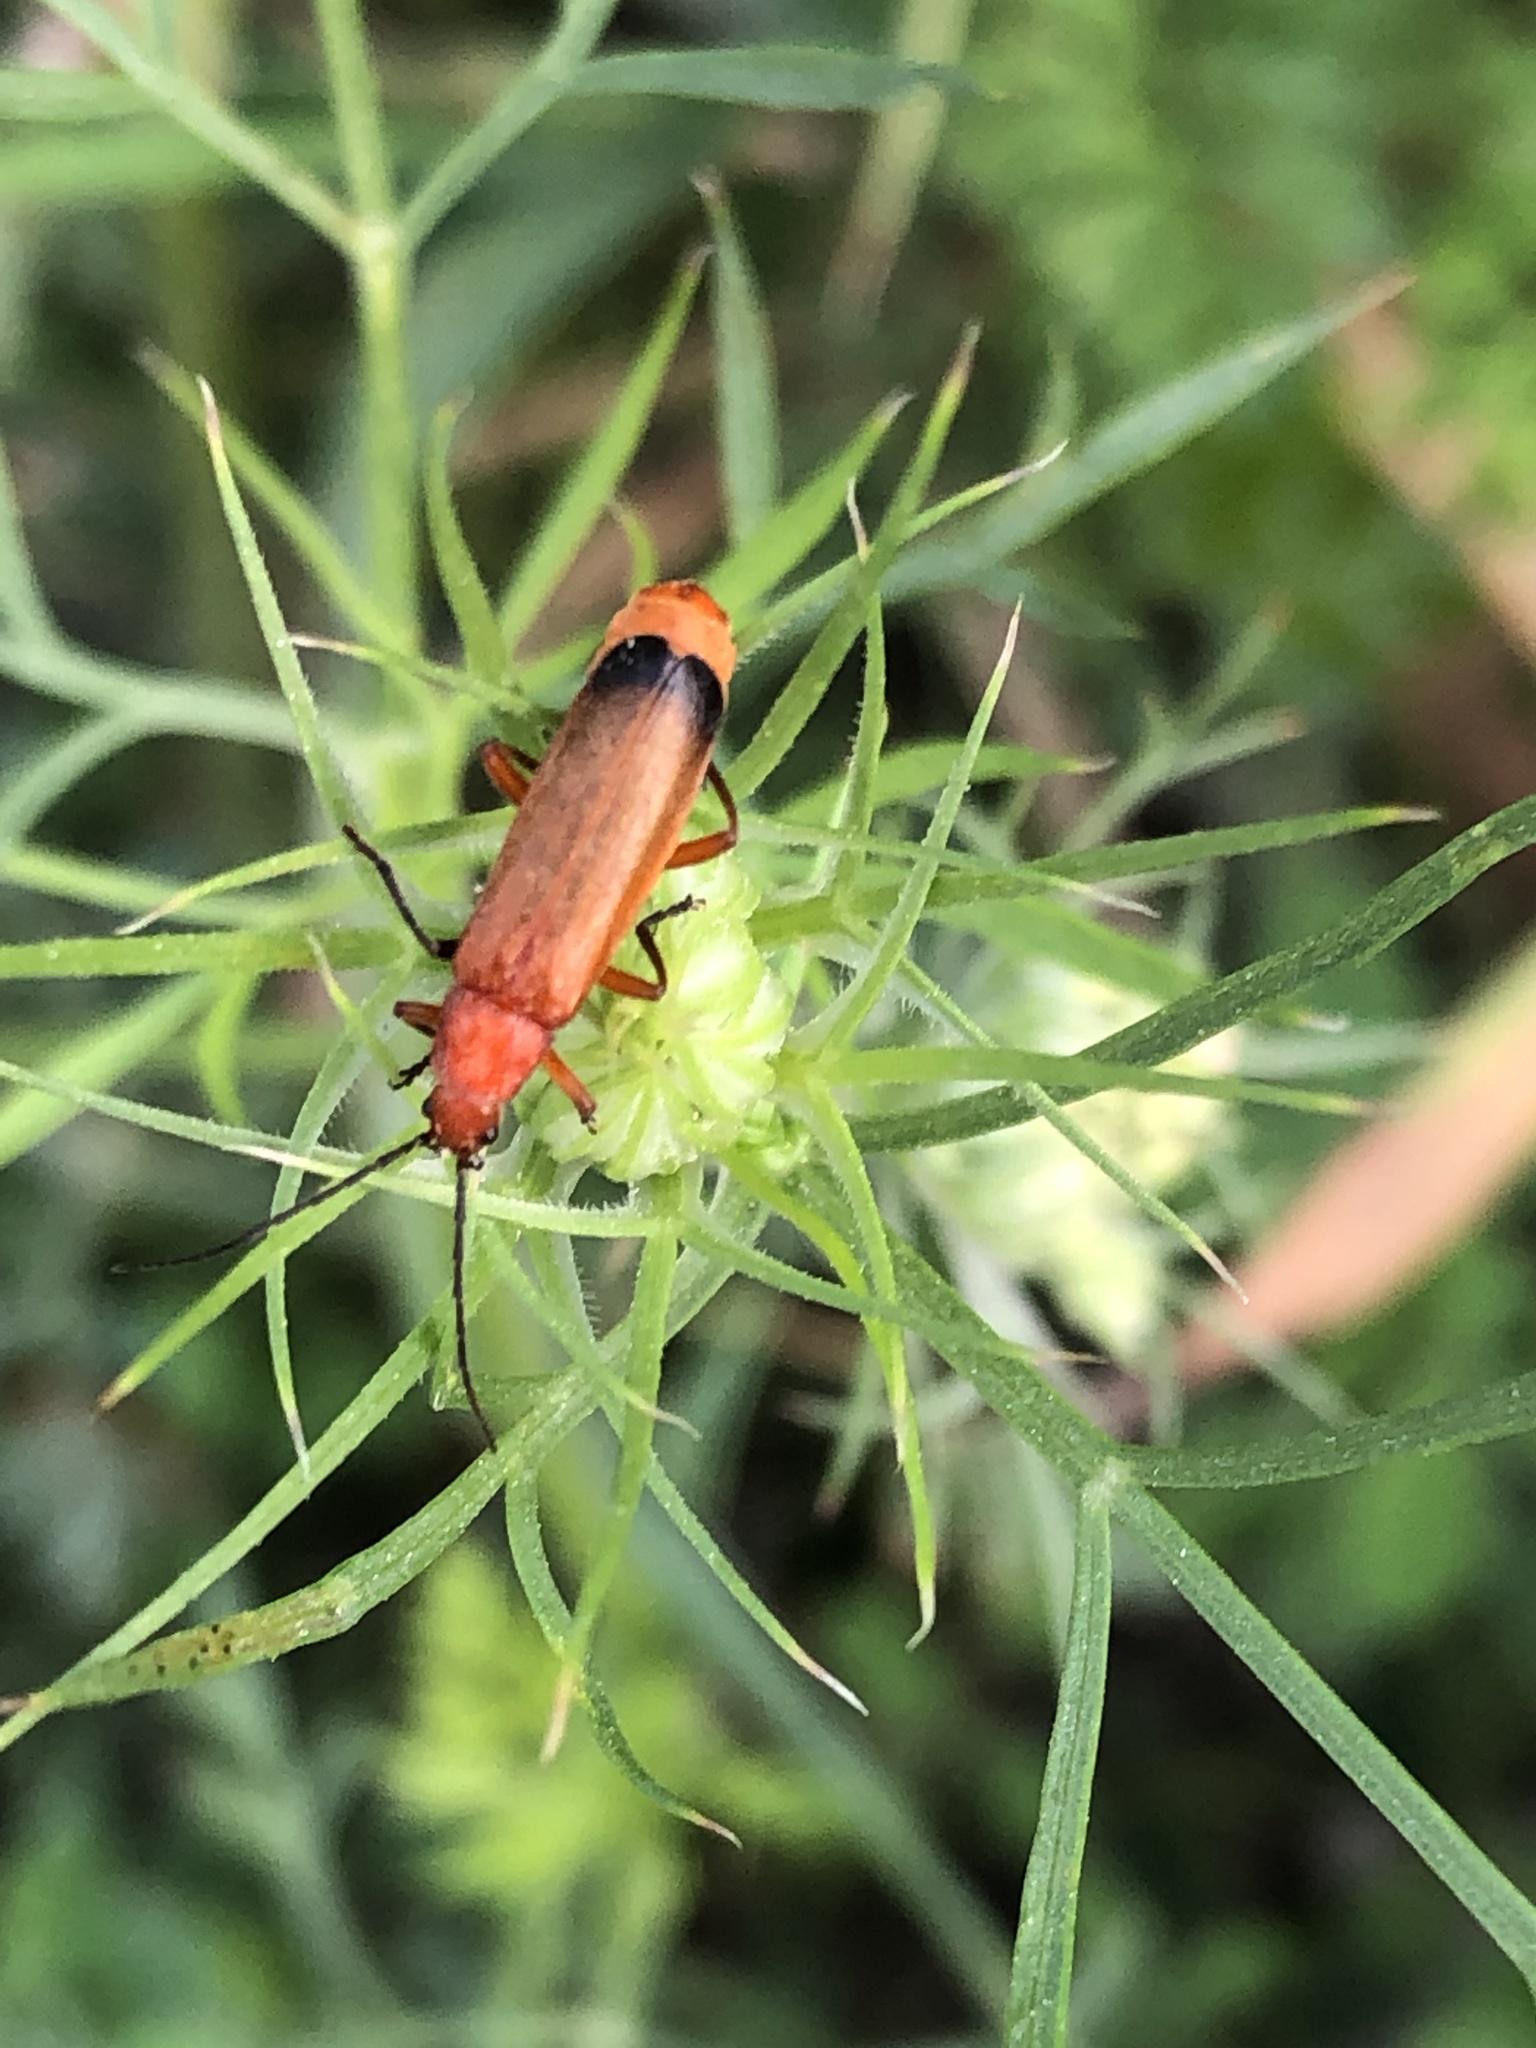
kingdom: Animalia
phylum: Arthropoda
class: Insecta
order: Coleoptera
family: Cantharidae
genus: Rhagonycha
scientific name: Rhagonycha fulva
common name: Common red soldier beetle
